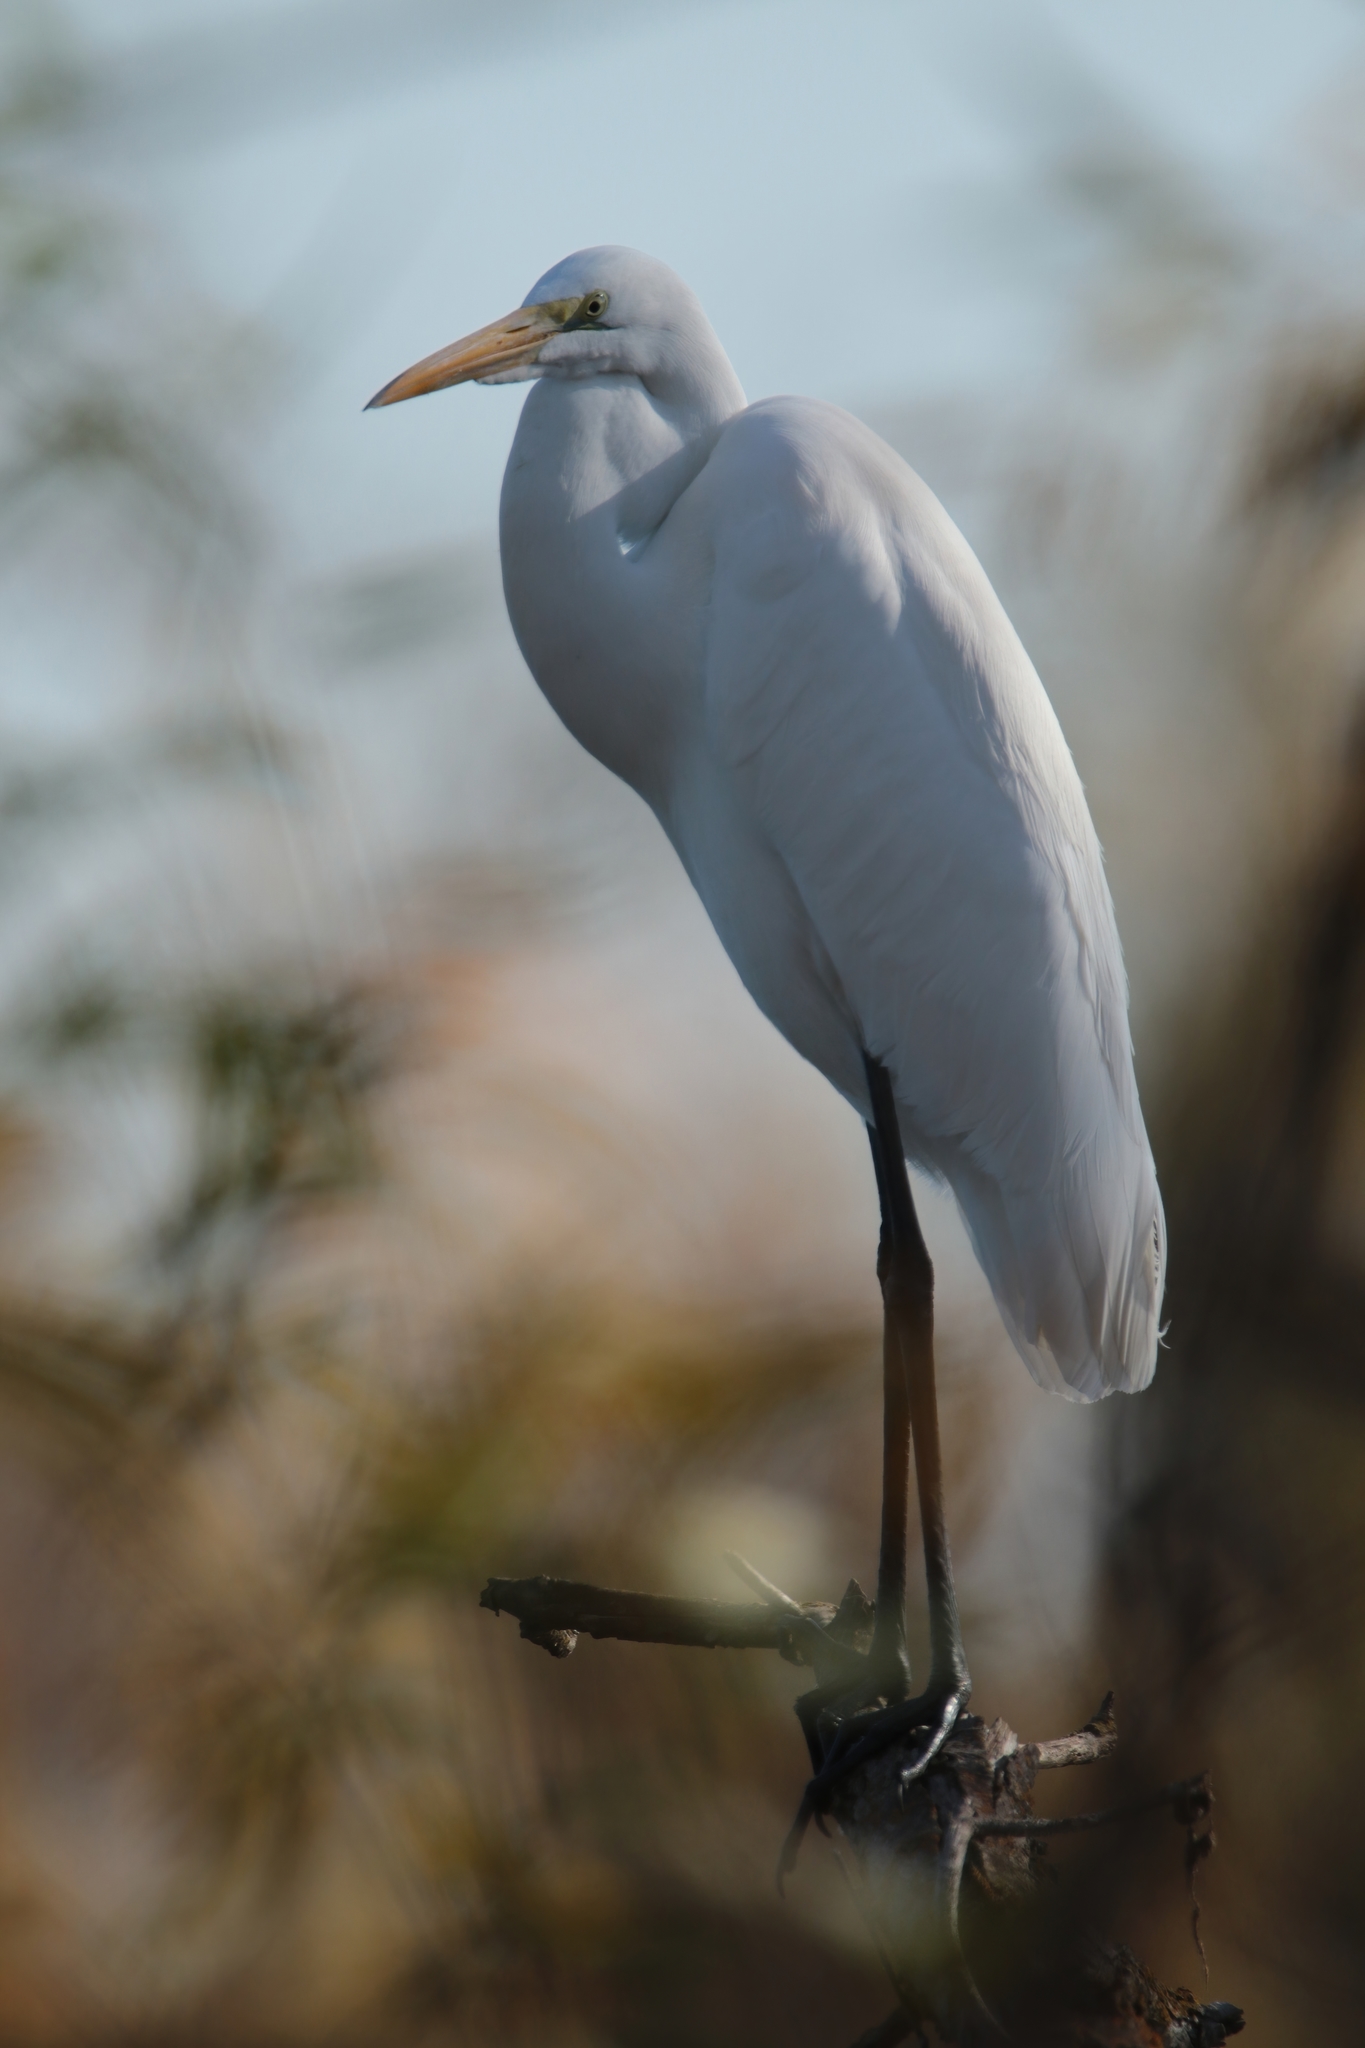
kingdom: Animalia
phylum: Chordata
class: Aves
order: Pelecaniformes
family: Ardeidae
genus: Ardea
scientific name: Ardea alba
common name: Great egret
